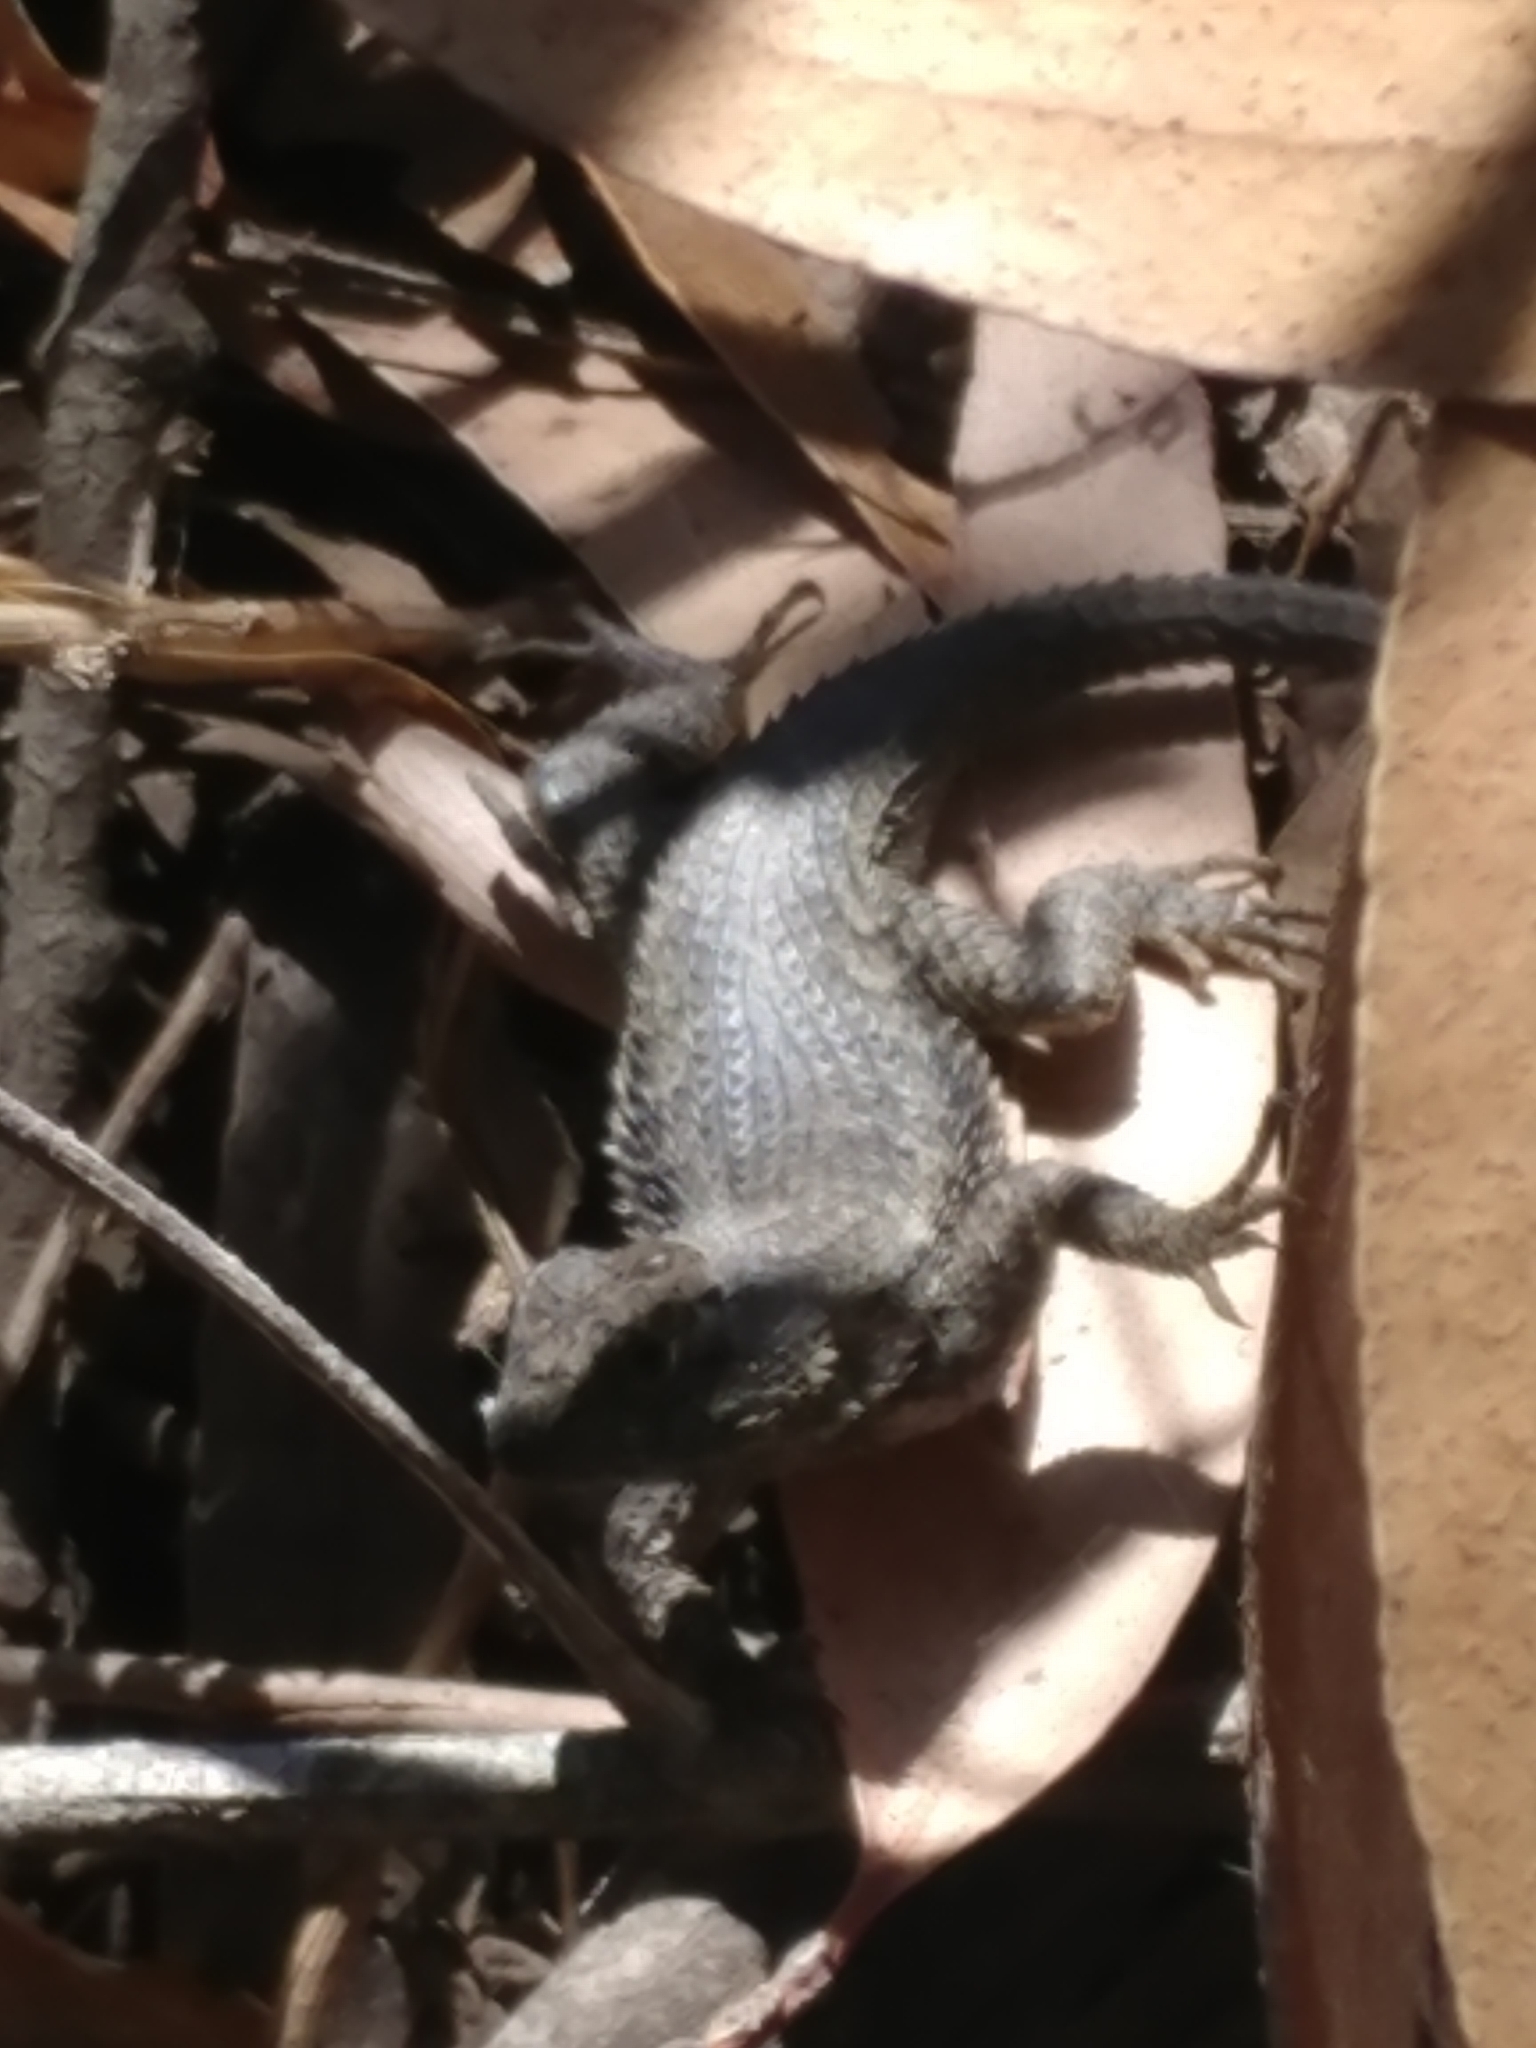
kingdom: Animalia
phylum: Chordata
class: Squamata
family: Phrynosomatidae
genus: Sceloporus
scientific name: Sceloporus occidentalis
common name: Western fence lizard
